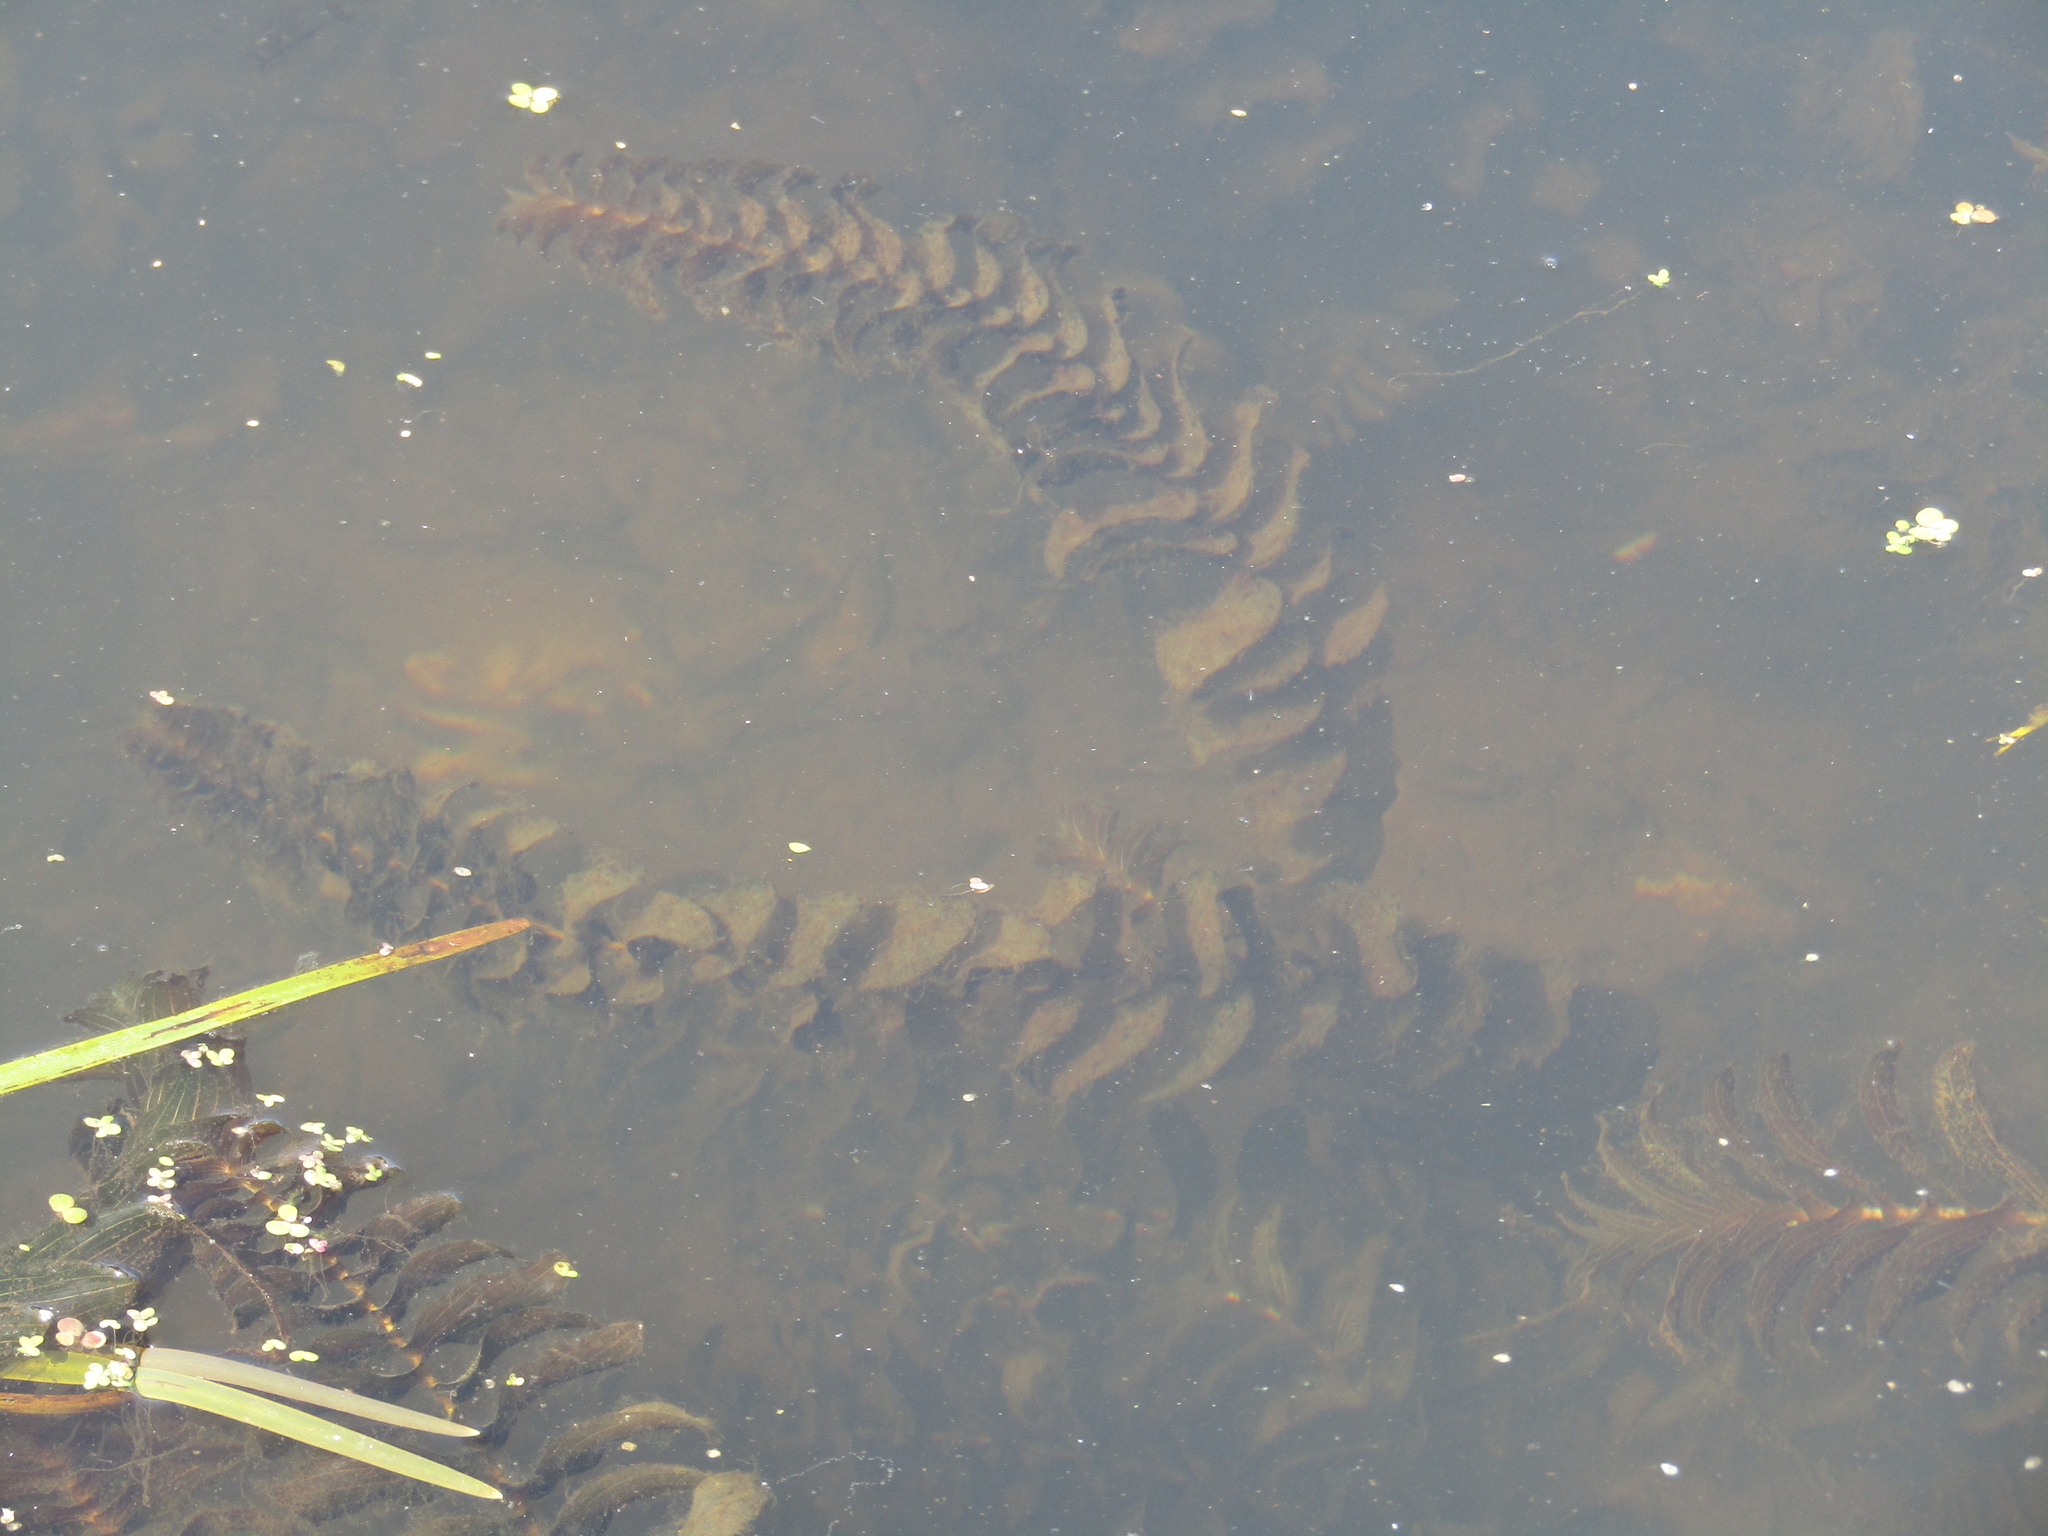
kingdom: Plantae
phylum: Tracheophyta
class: Liliopsida
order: Alismatales
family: Potamogetonaceae
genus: Potamogeton
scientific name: Potamogeton perfoliatus
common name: Perfoliate pondweed
